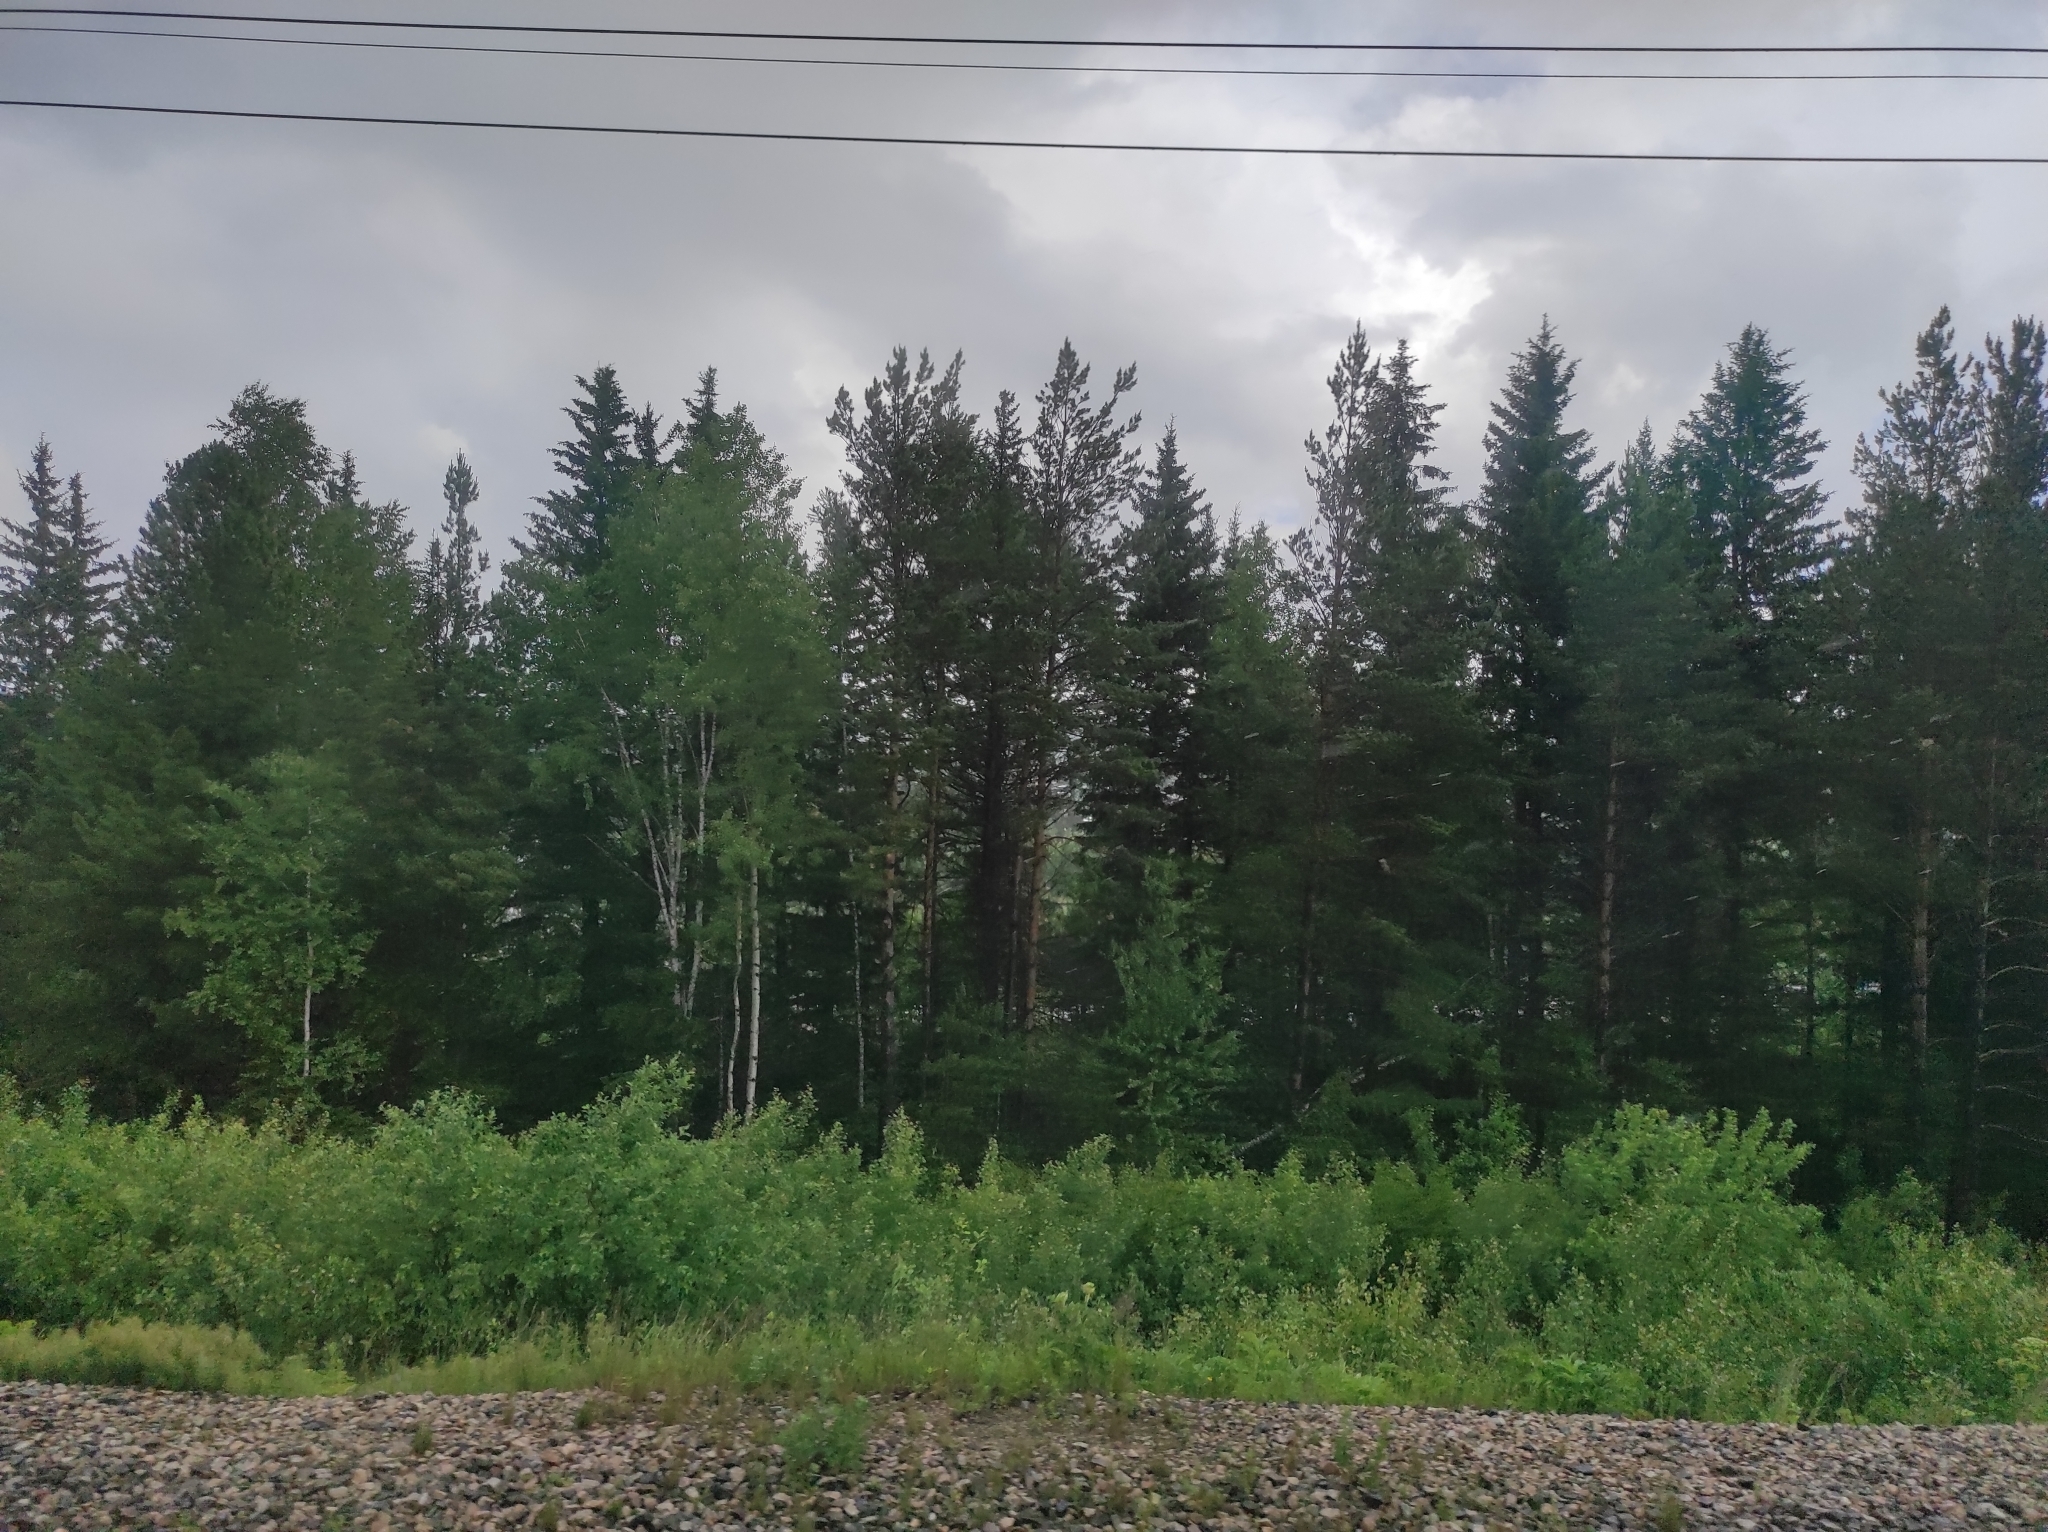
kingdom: Plantae
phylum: Tracheophyta
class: Pinopsida
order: Pinales
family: Pinaceae
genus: Pinus
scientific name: Pinus sylvestris
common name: Scots pine
